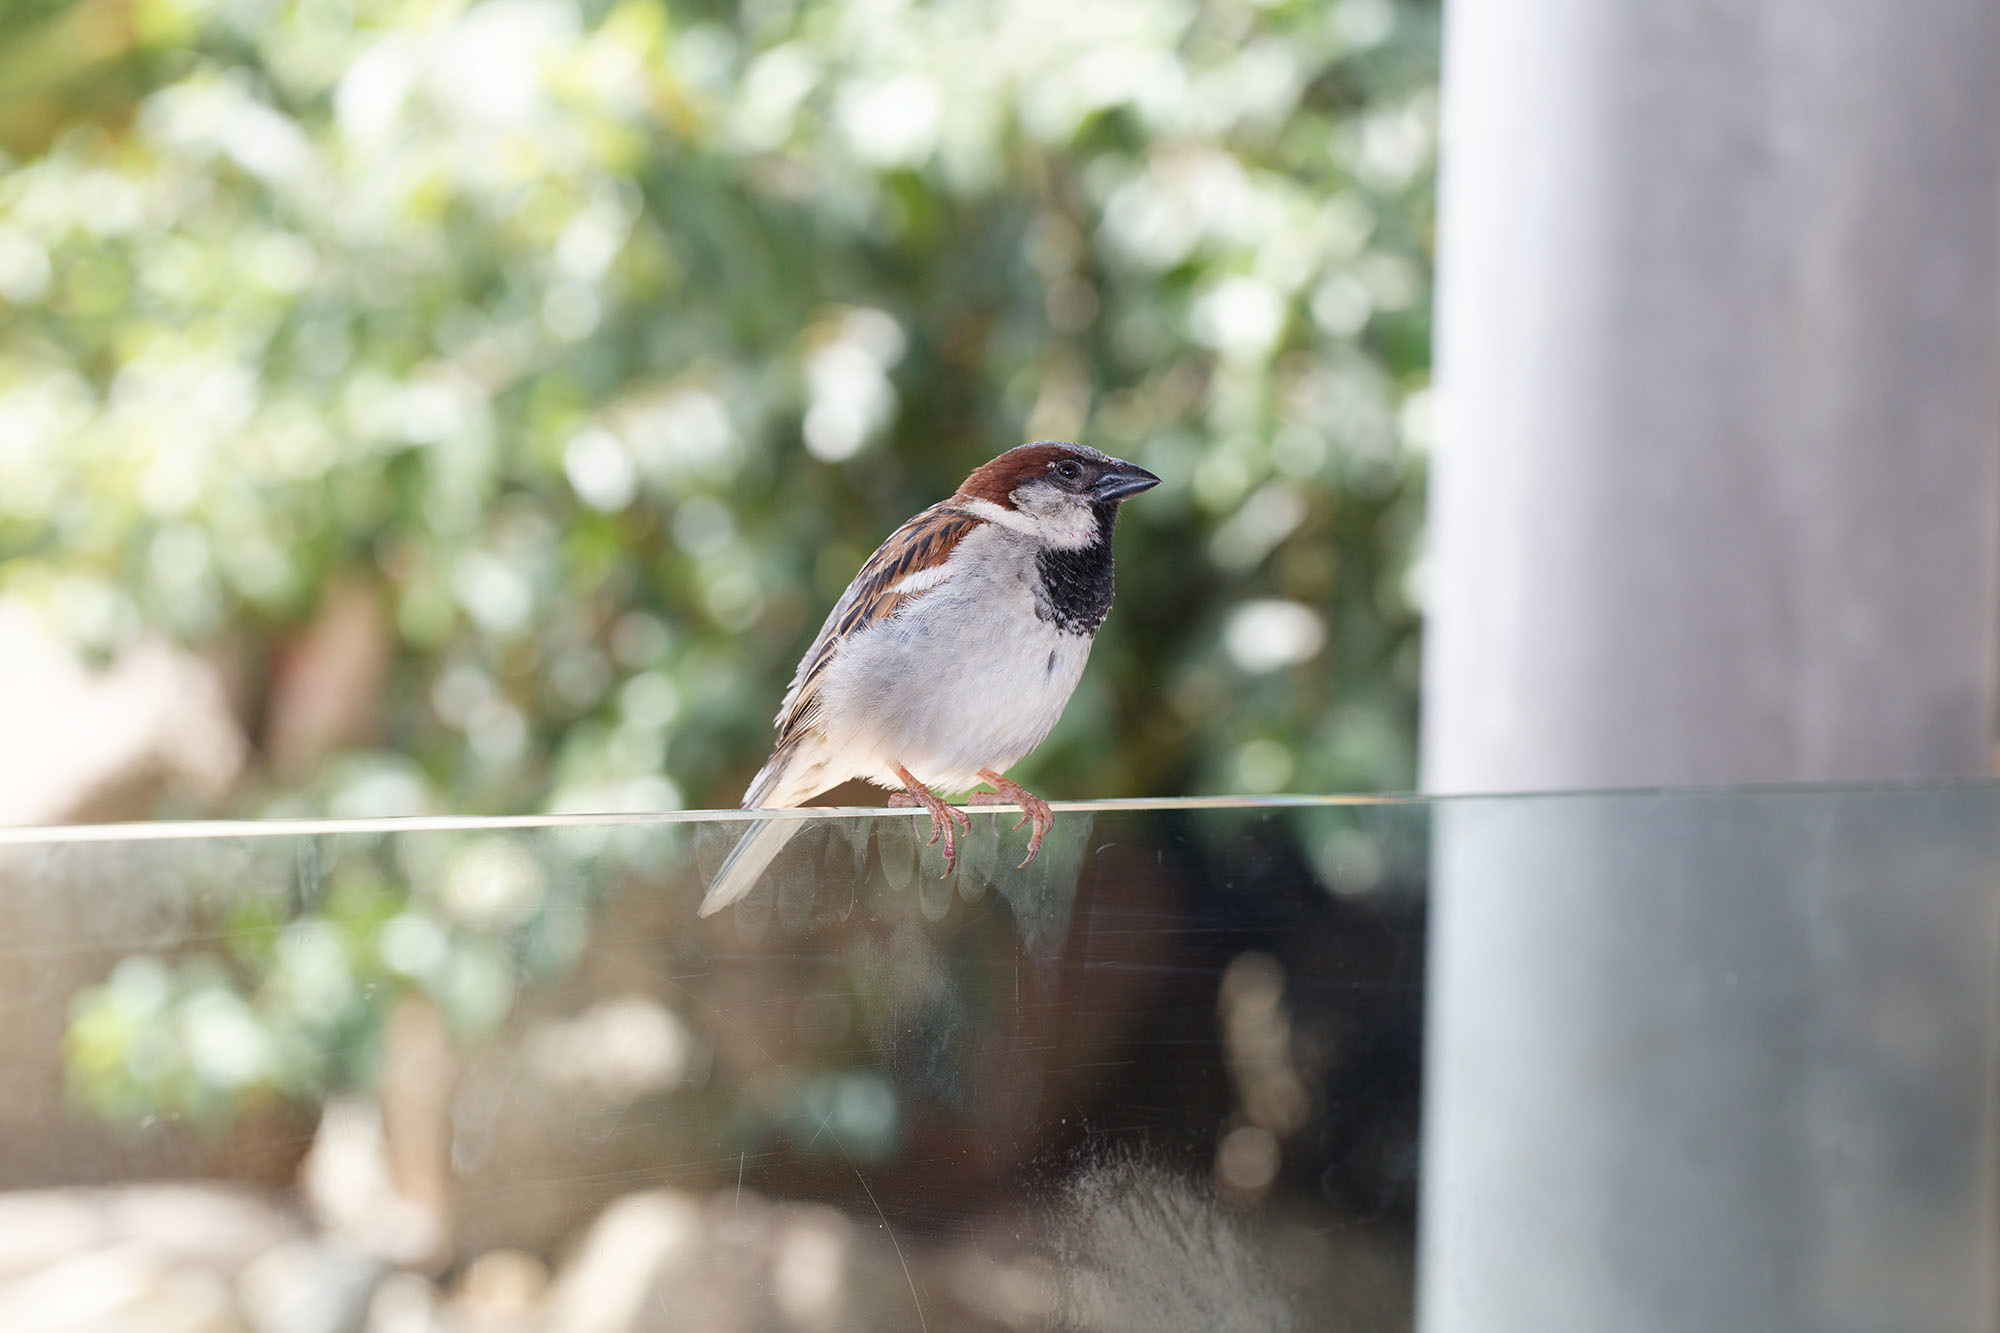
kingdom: Animalia
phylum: Chordata
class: Aves
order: Passeriformes
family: Passeridae
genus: Passer
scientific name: Passer domesticus
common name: House sparrow
